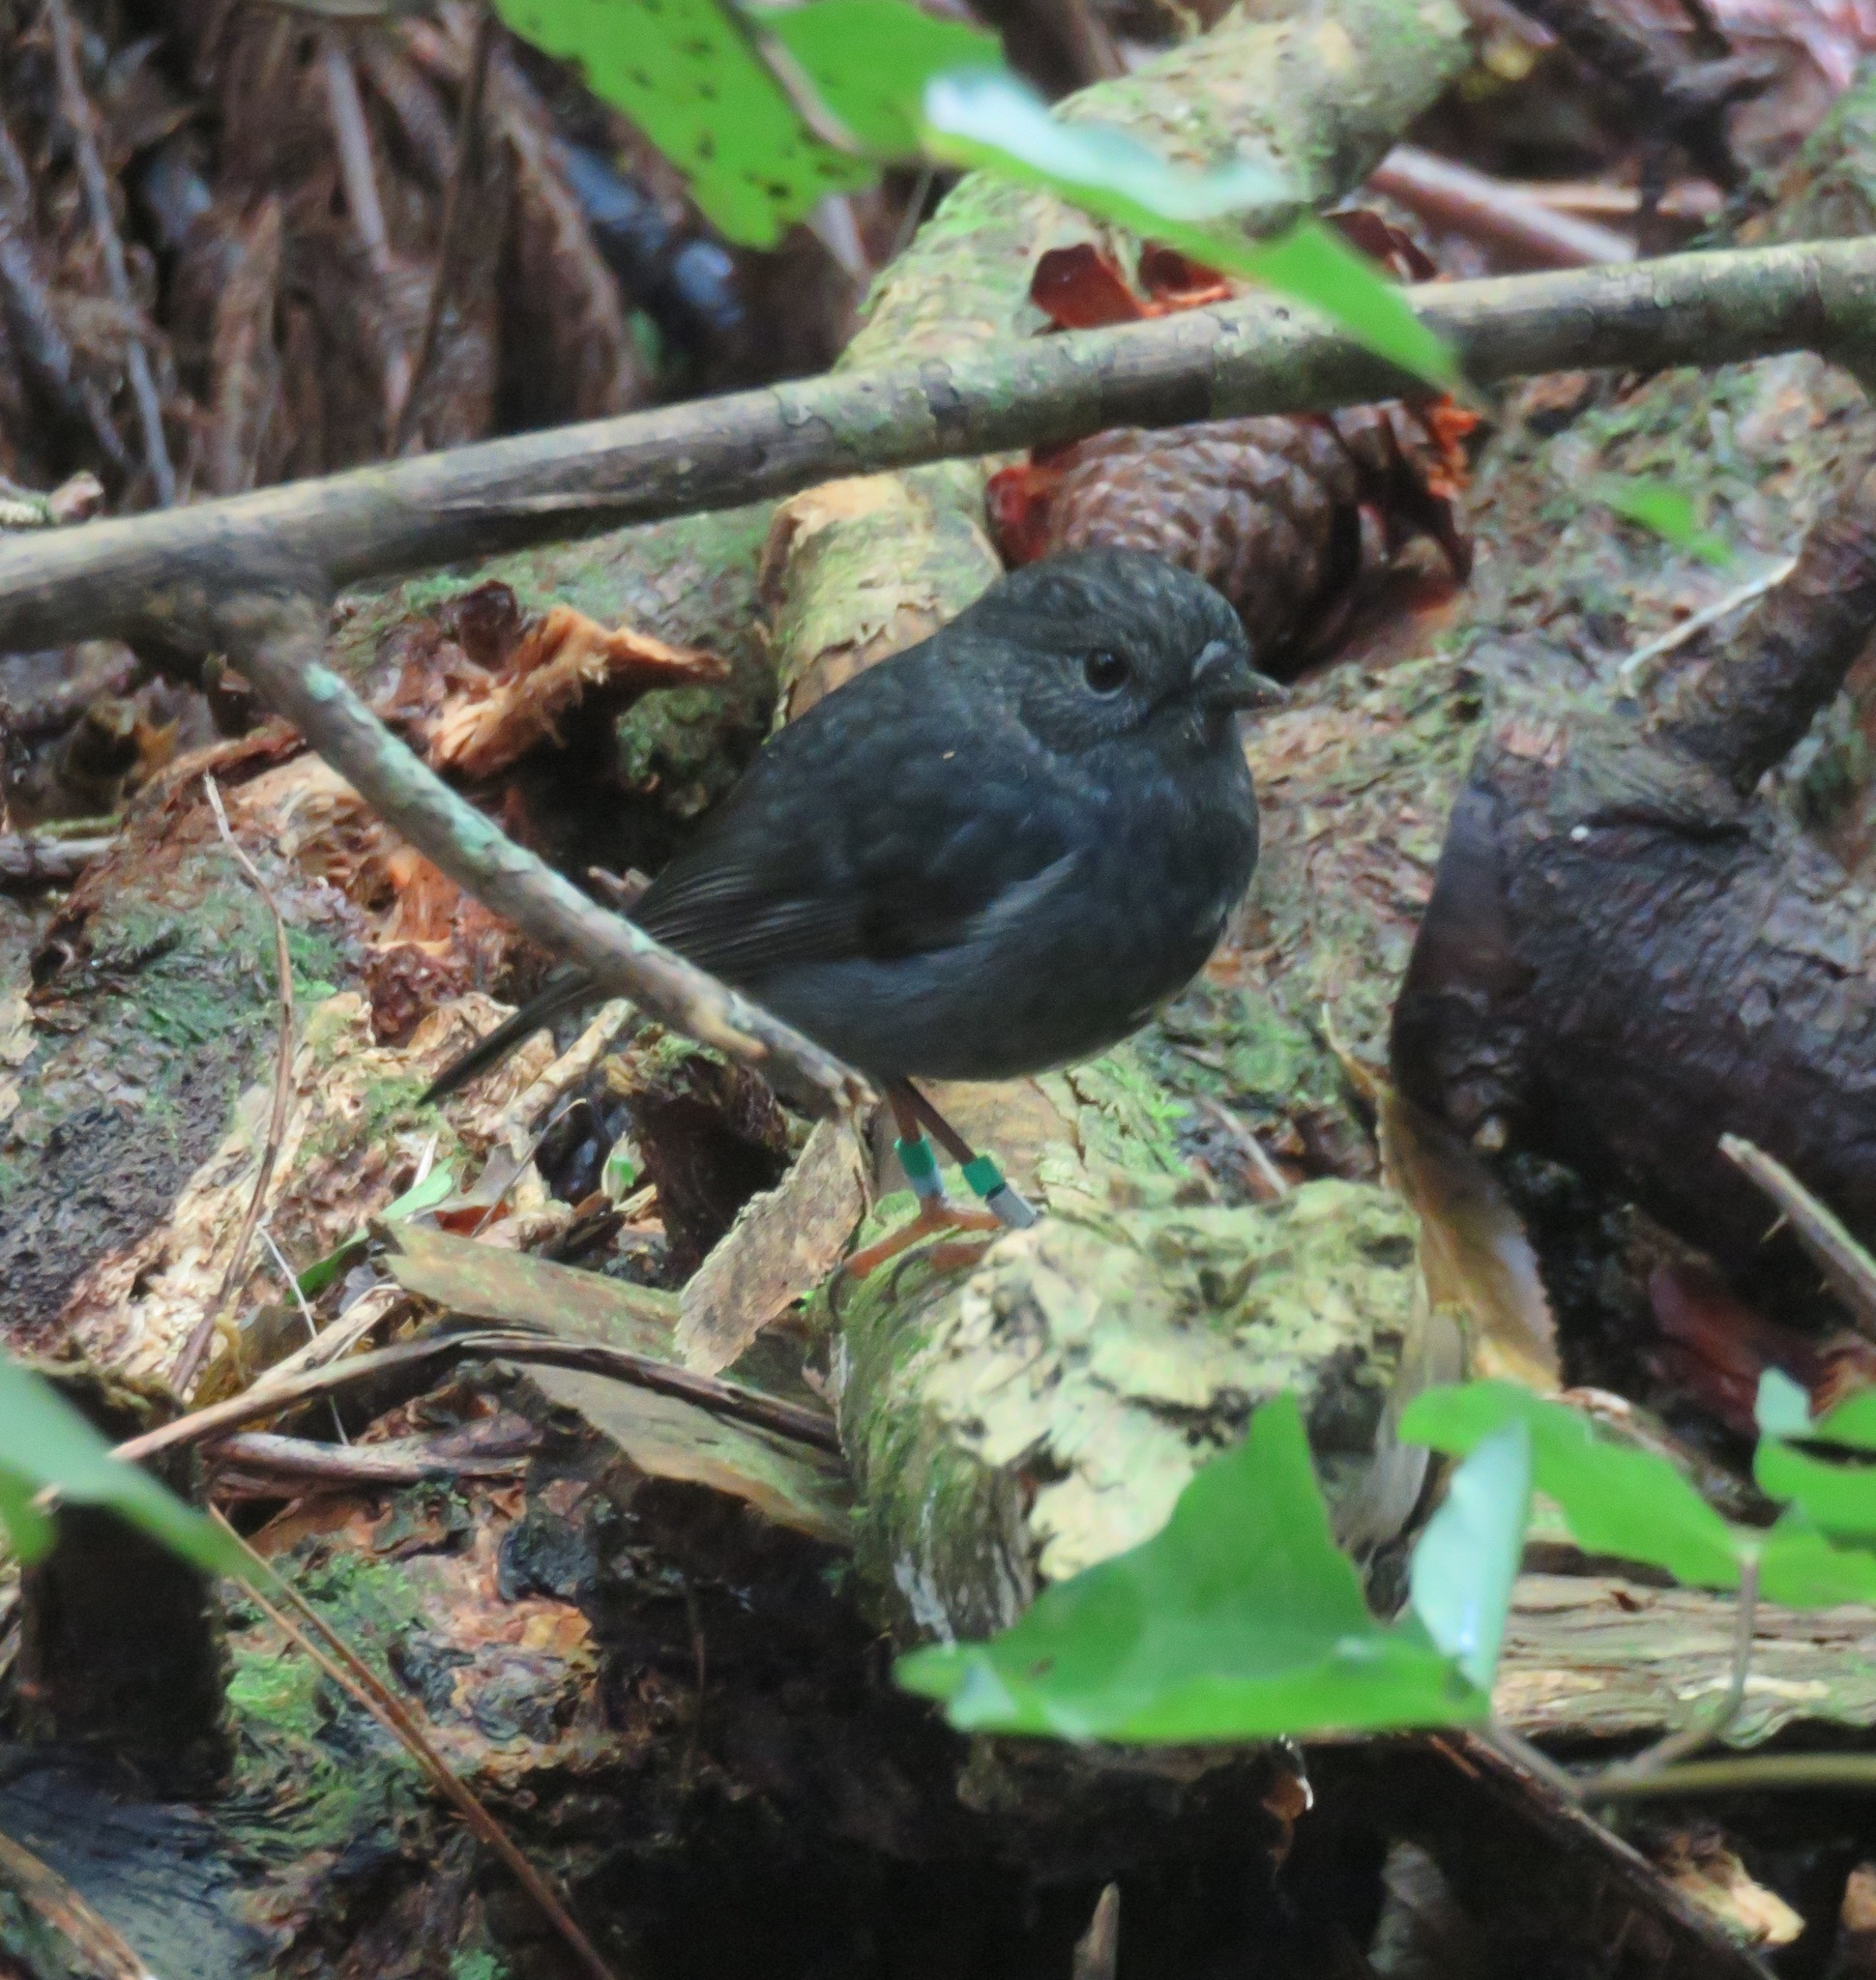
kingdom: Animalia
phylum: Chordata
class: Aves
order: Passeriformes
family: Petroicidae
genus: Petroica
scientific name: Petroica australis
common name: New zealand robin
